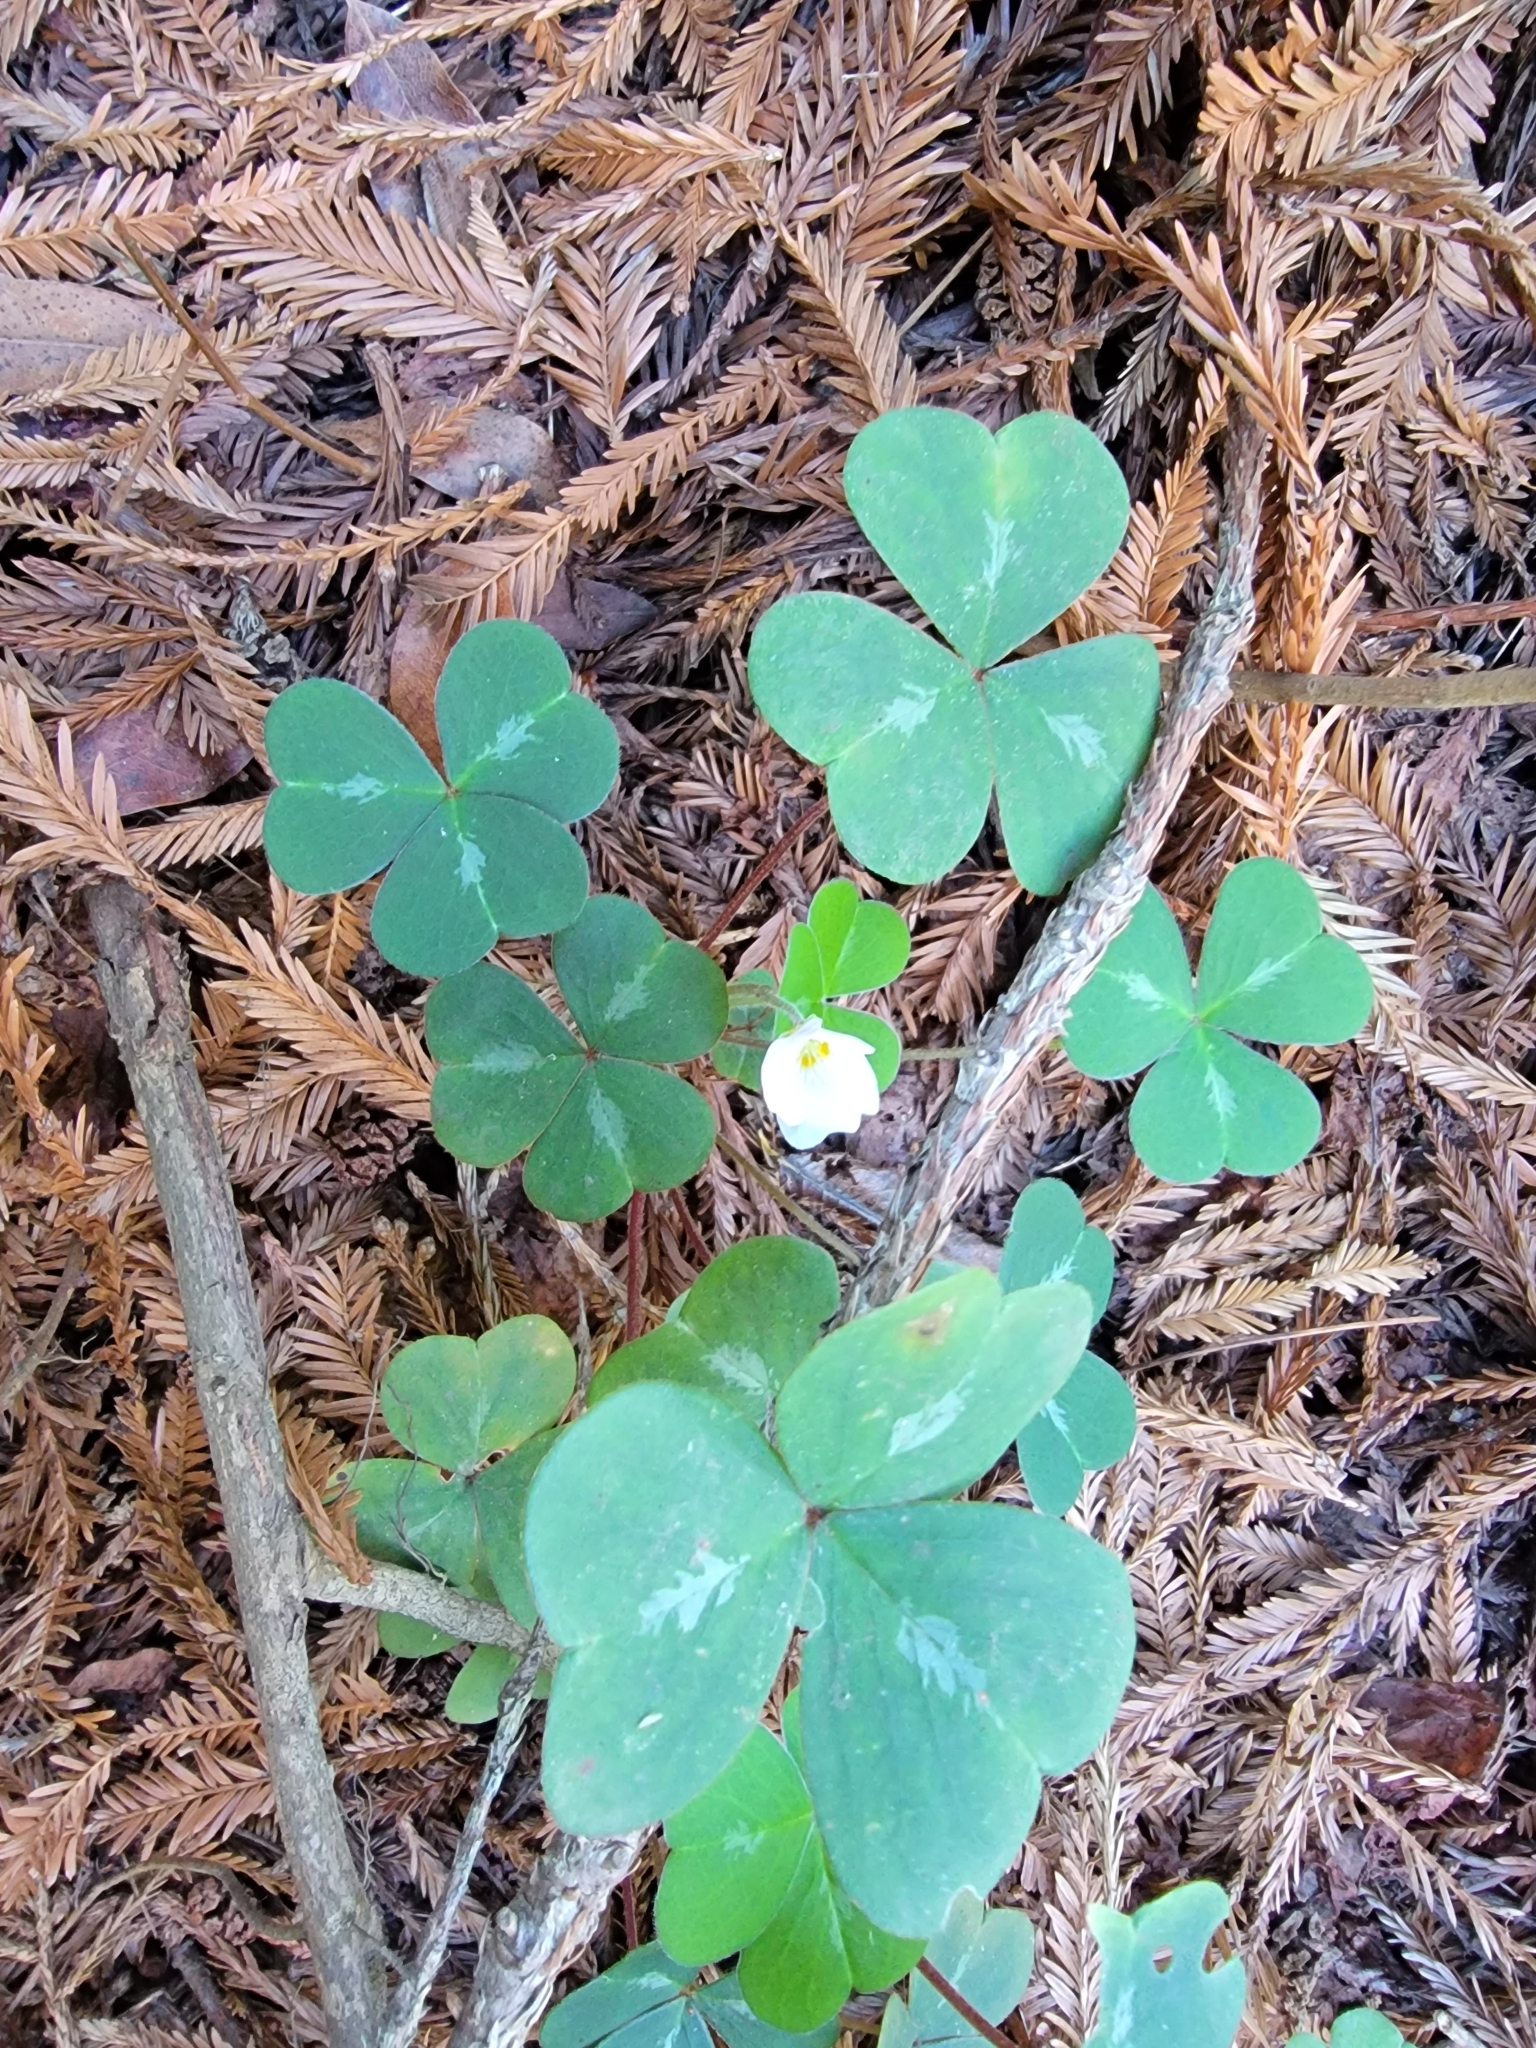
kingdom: Plantae
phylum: Tracheophyta
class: Magnoliopsida
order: Oxalidales
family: Oxalidaceae
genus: Oxalis
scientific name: Oxalis oregana
